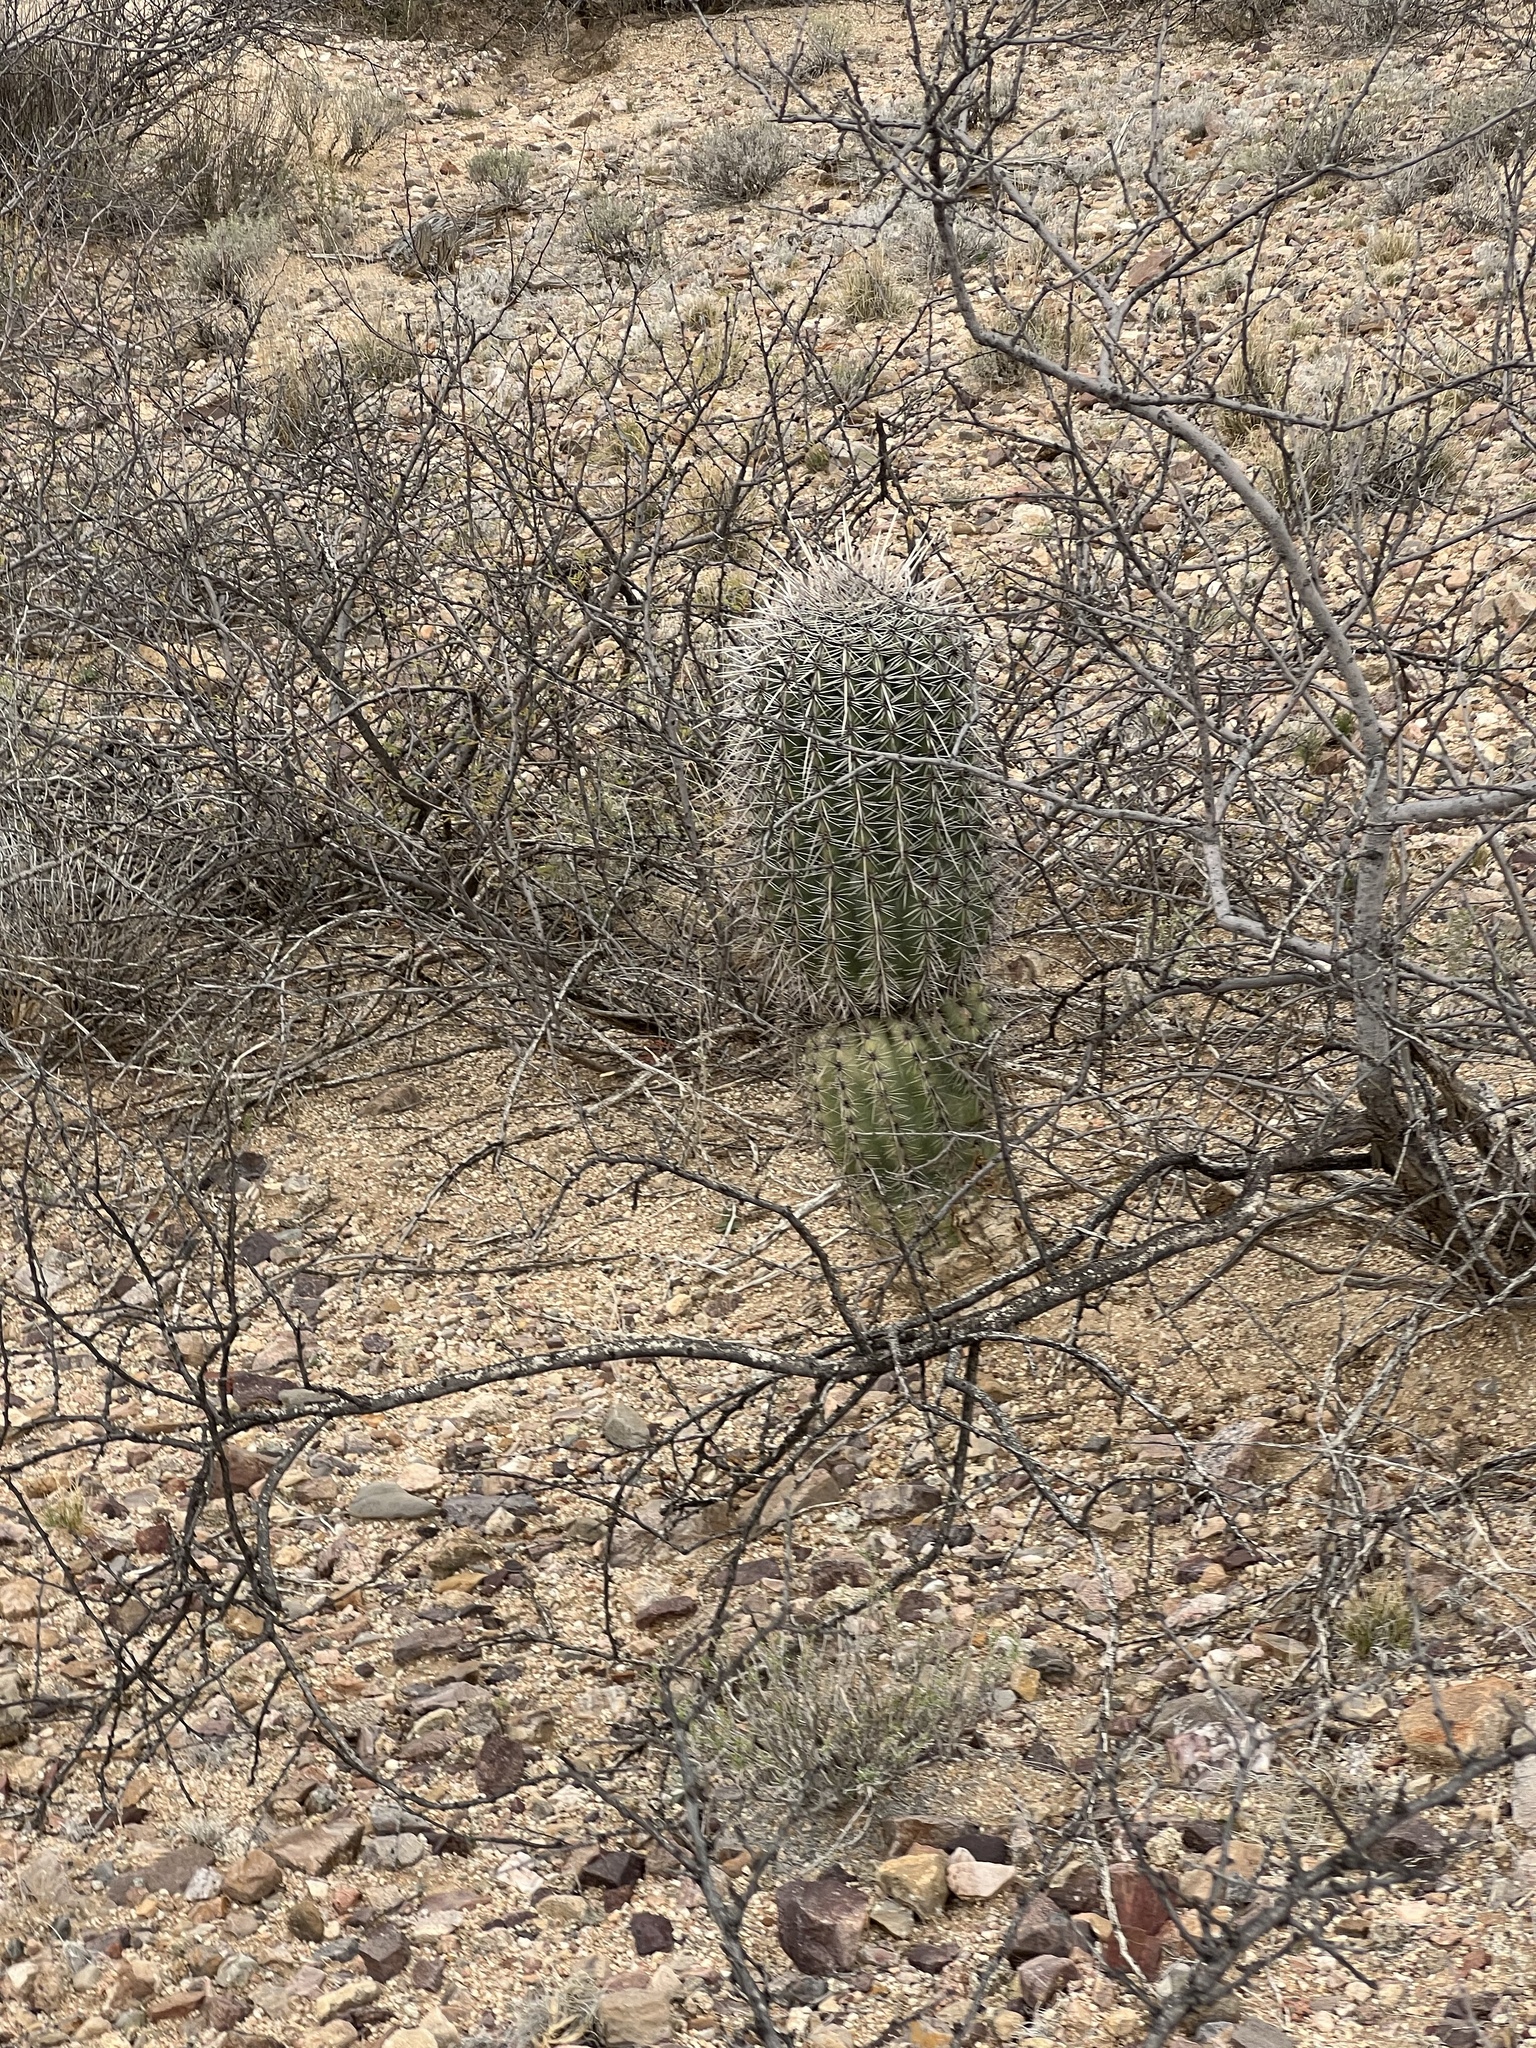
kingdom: Plantae
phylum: Tracheophyta
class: Magnoliopsida
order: Caryophyllales
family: Cactaceae
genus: Carnegiea
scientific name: Carnegiea gigantea
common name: Saguaro
